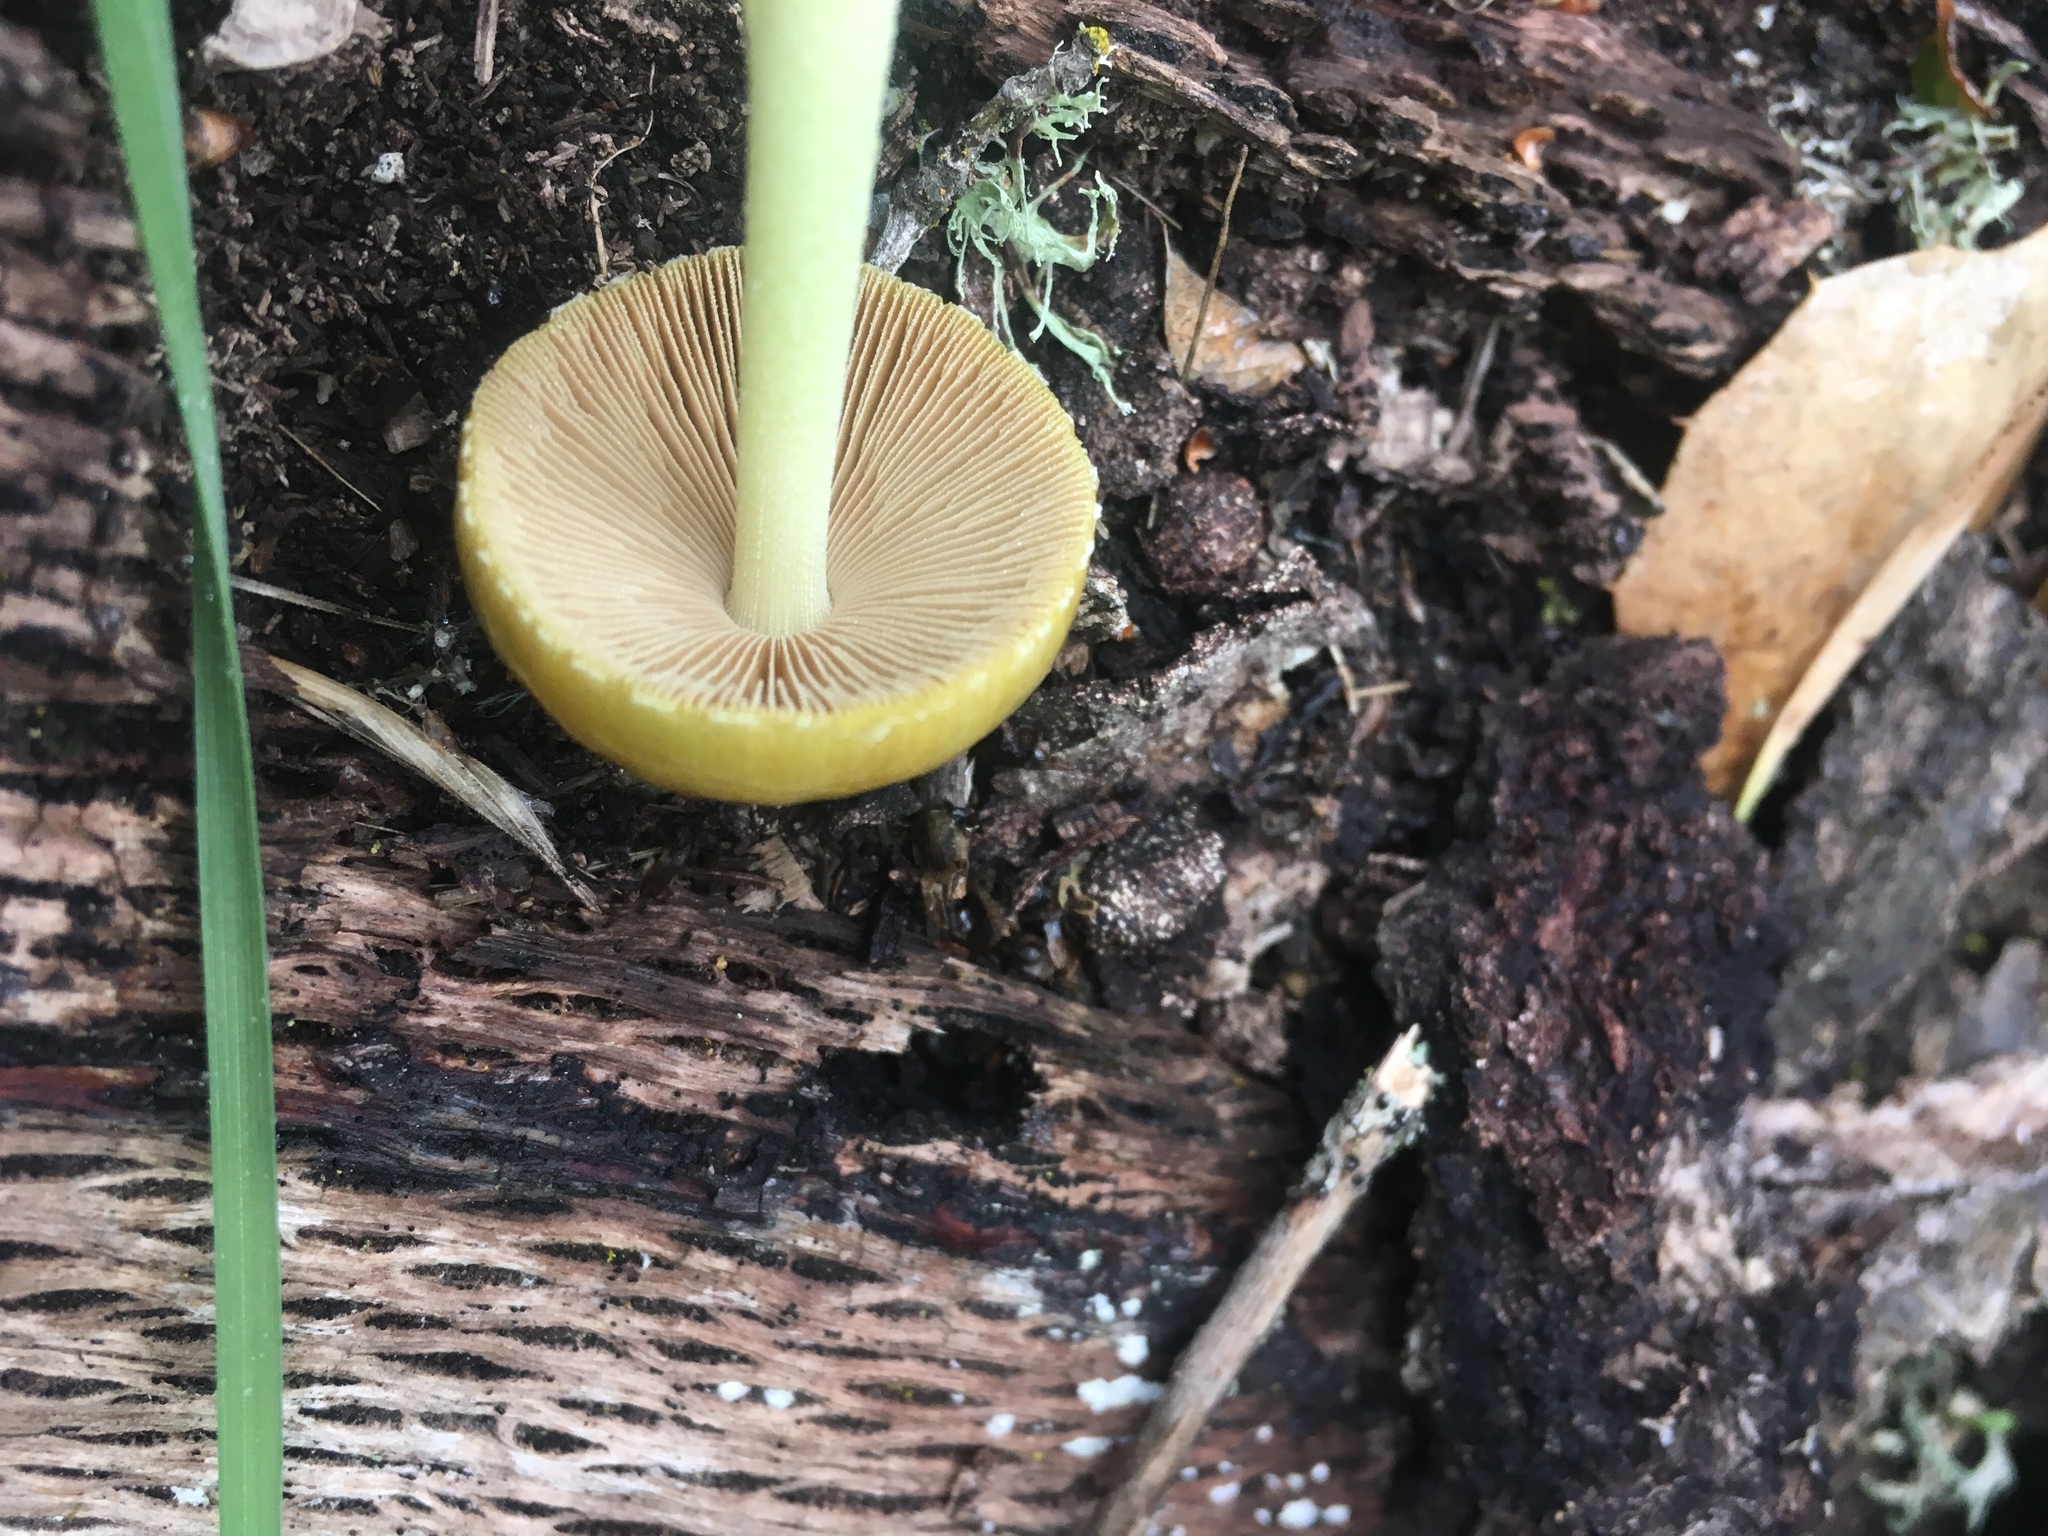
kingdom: Fungi
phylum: Basidiomycota
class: Agaricomycetes
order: Agaricales
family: Bolbitiaceae
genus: Bolbitius
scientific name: Bolbitius titubans
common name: Yellow fieldcap
